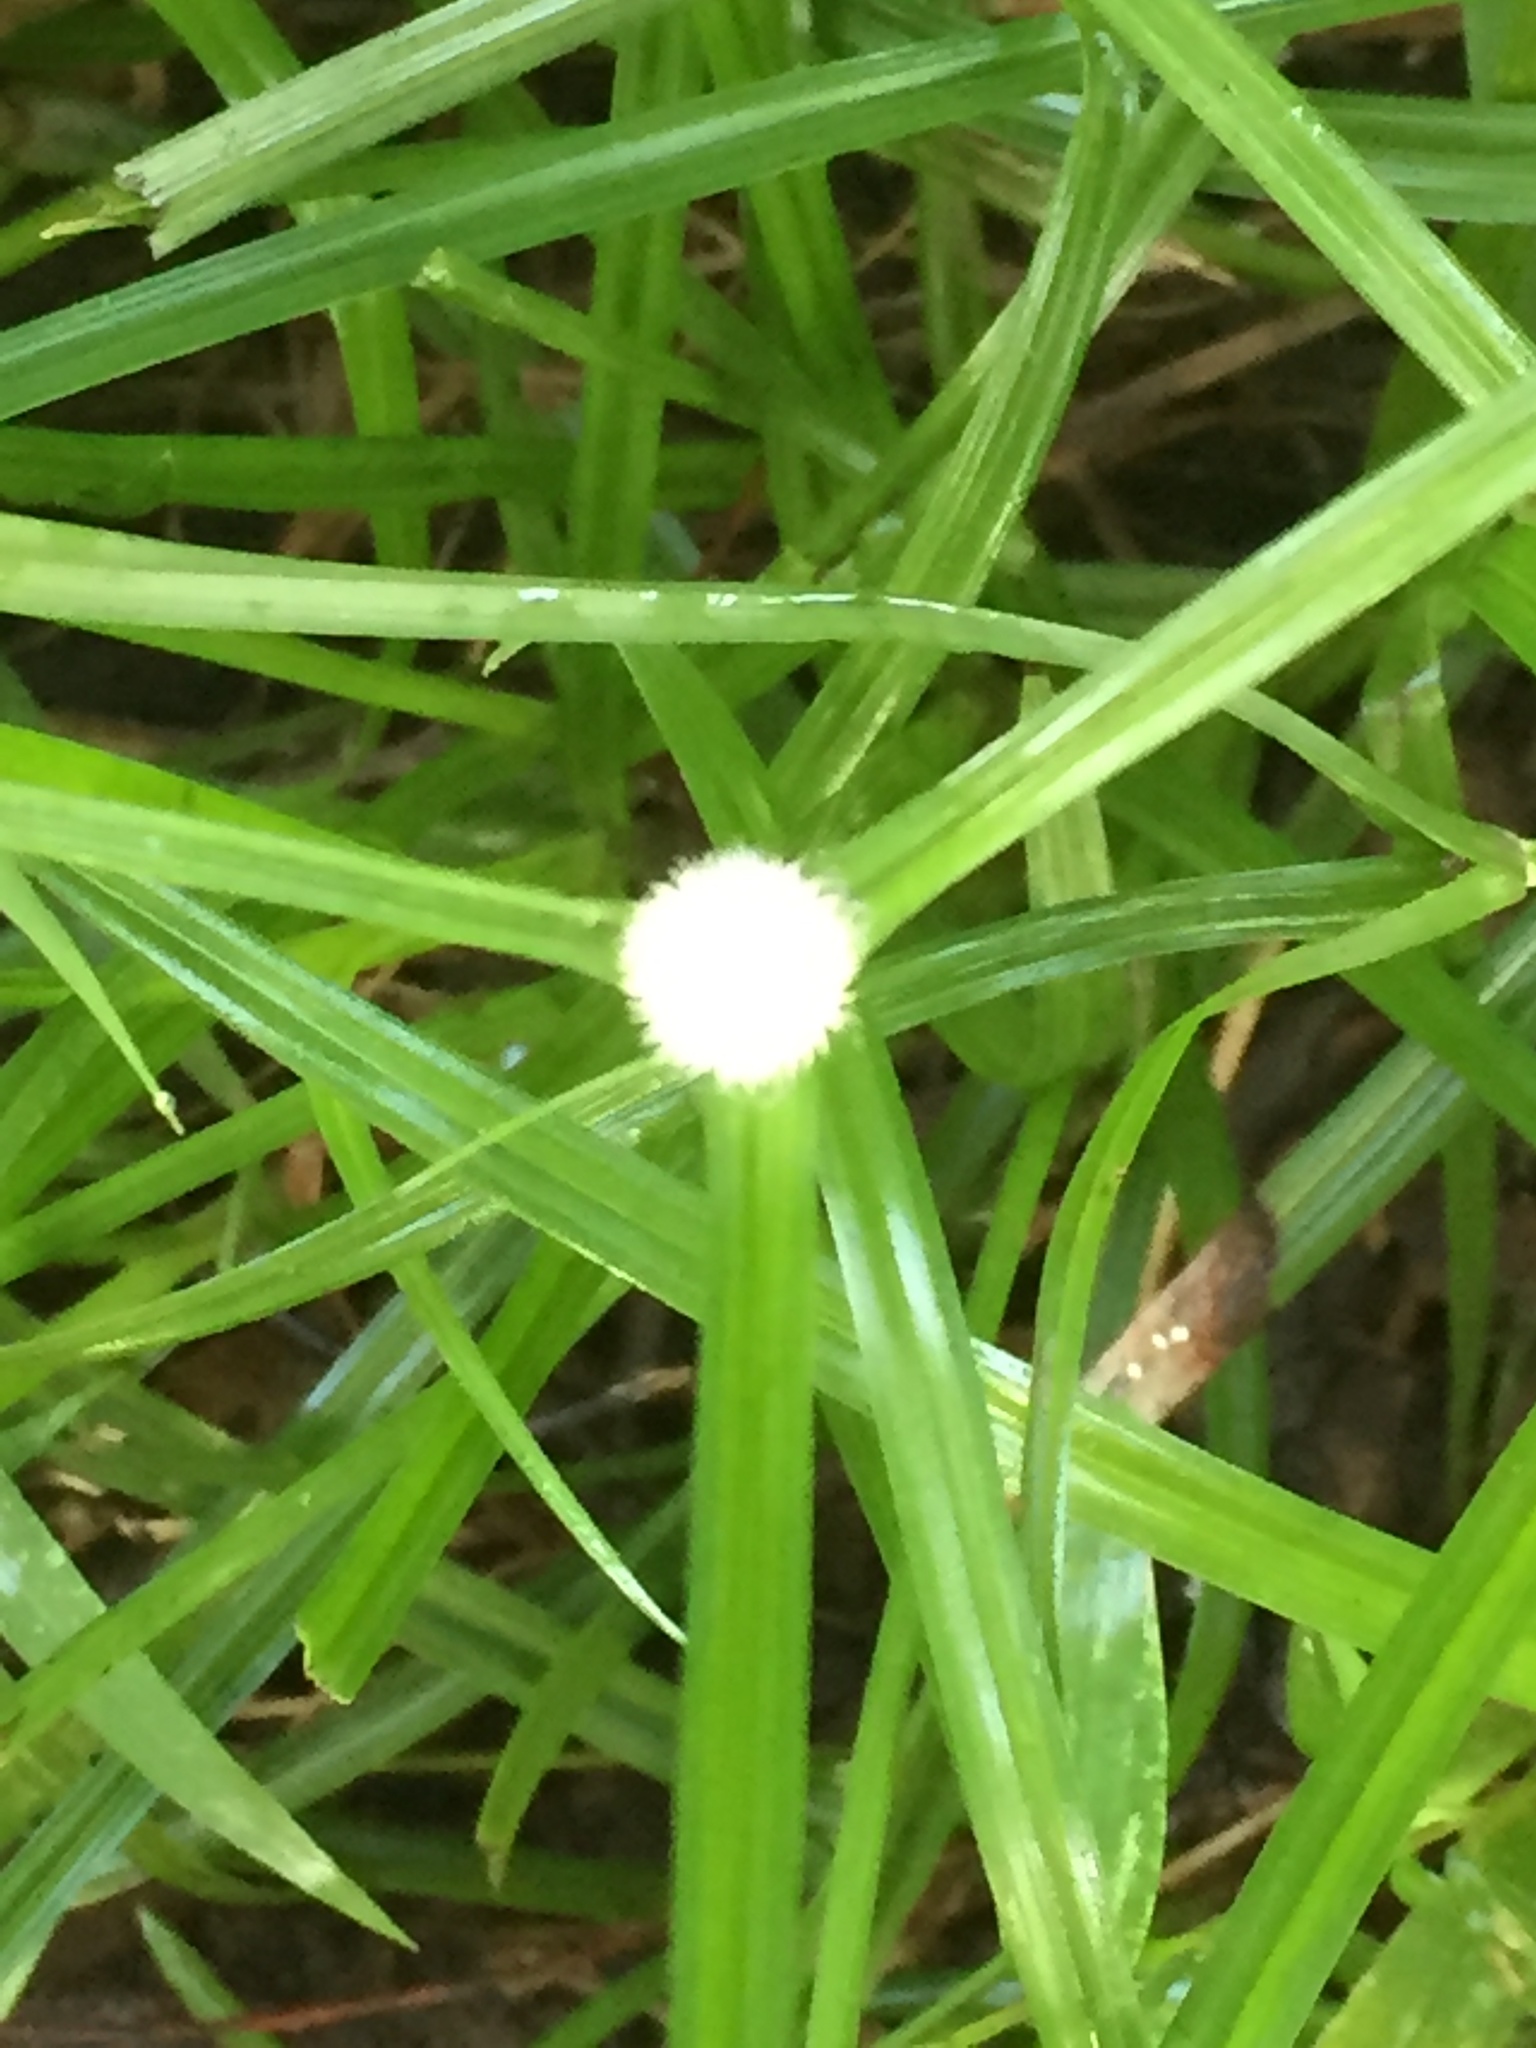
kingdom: Plantae
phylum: Tracheophyta
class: Liliopsida
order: Poales
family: Cyperaceae
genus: Cyperus
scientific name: Cyperus mindorensis
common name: Flatsedge
